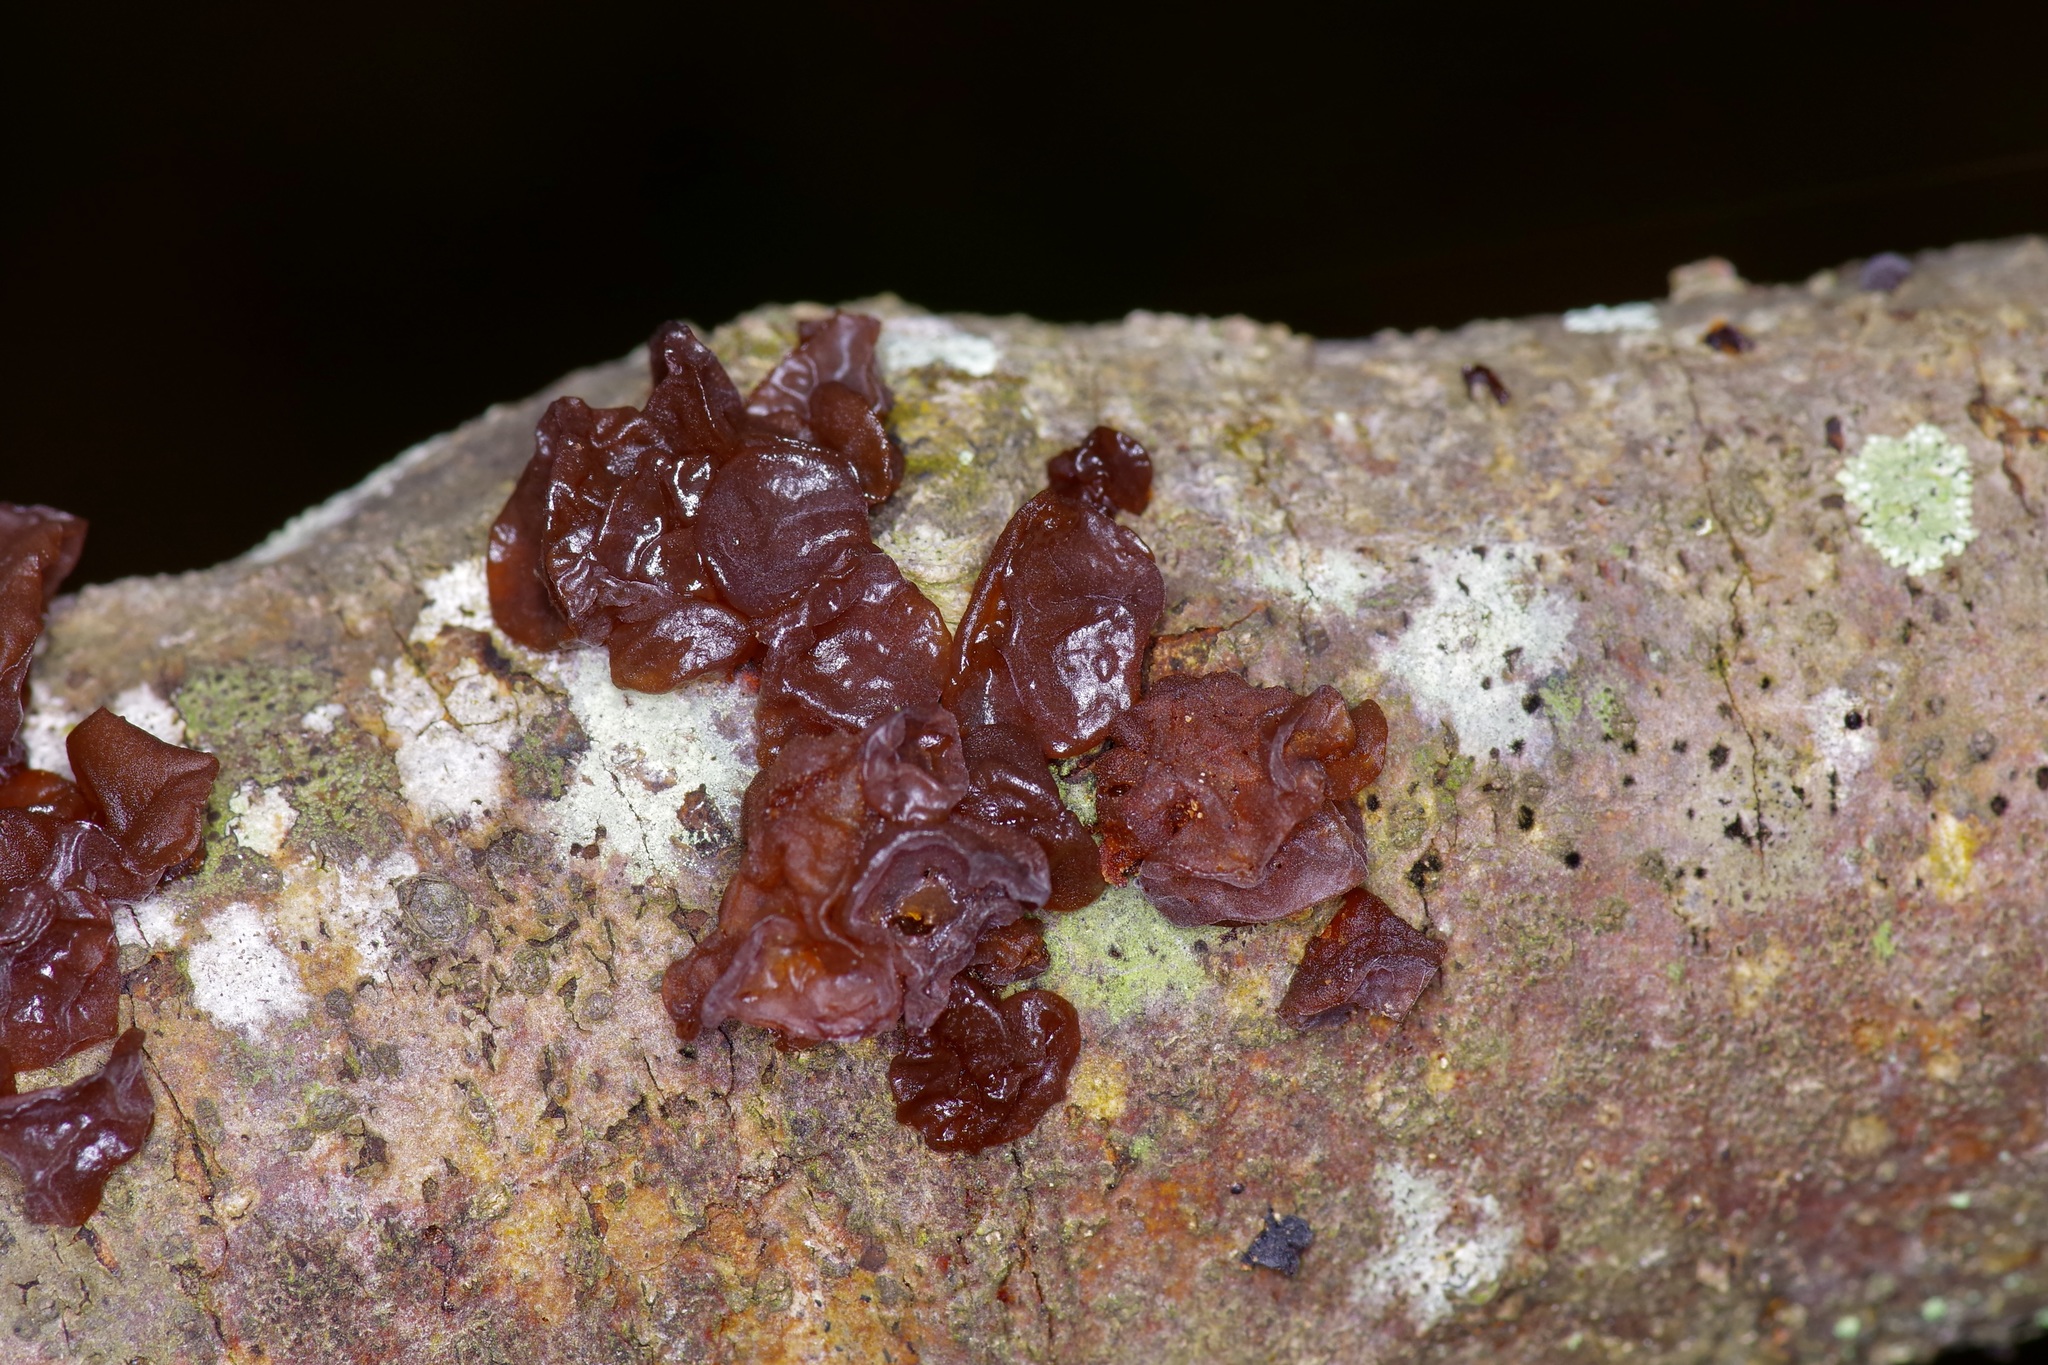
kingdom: Fungi
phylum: Basidiomycota
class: Agaricomycetes
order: Auriculariales
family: Auriculariaceae
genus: Exidia
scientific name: Exidia
